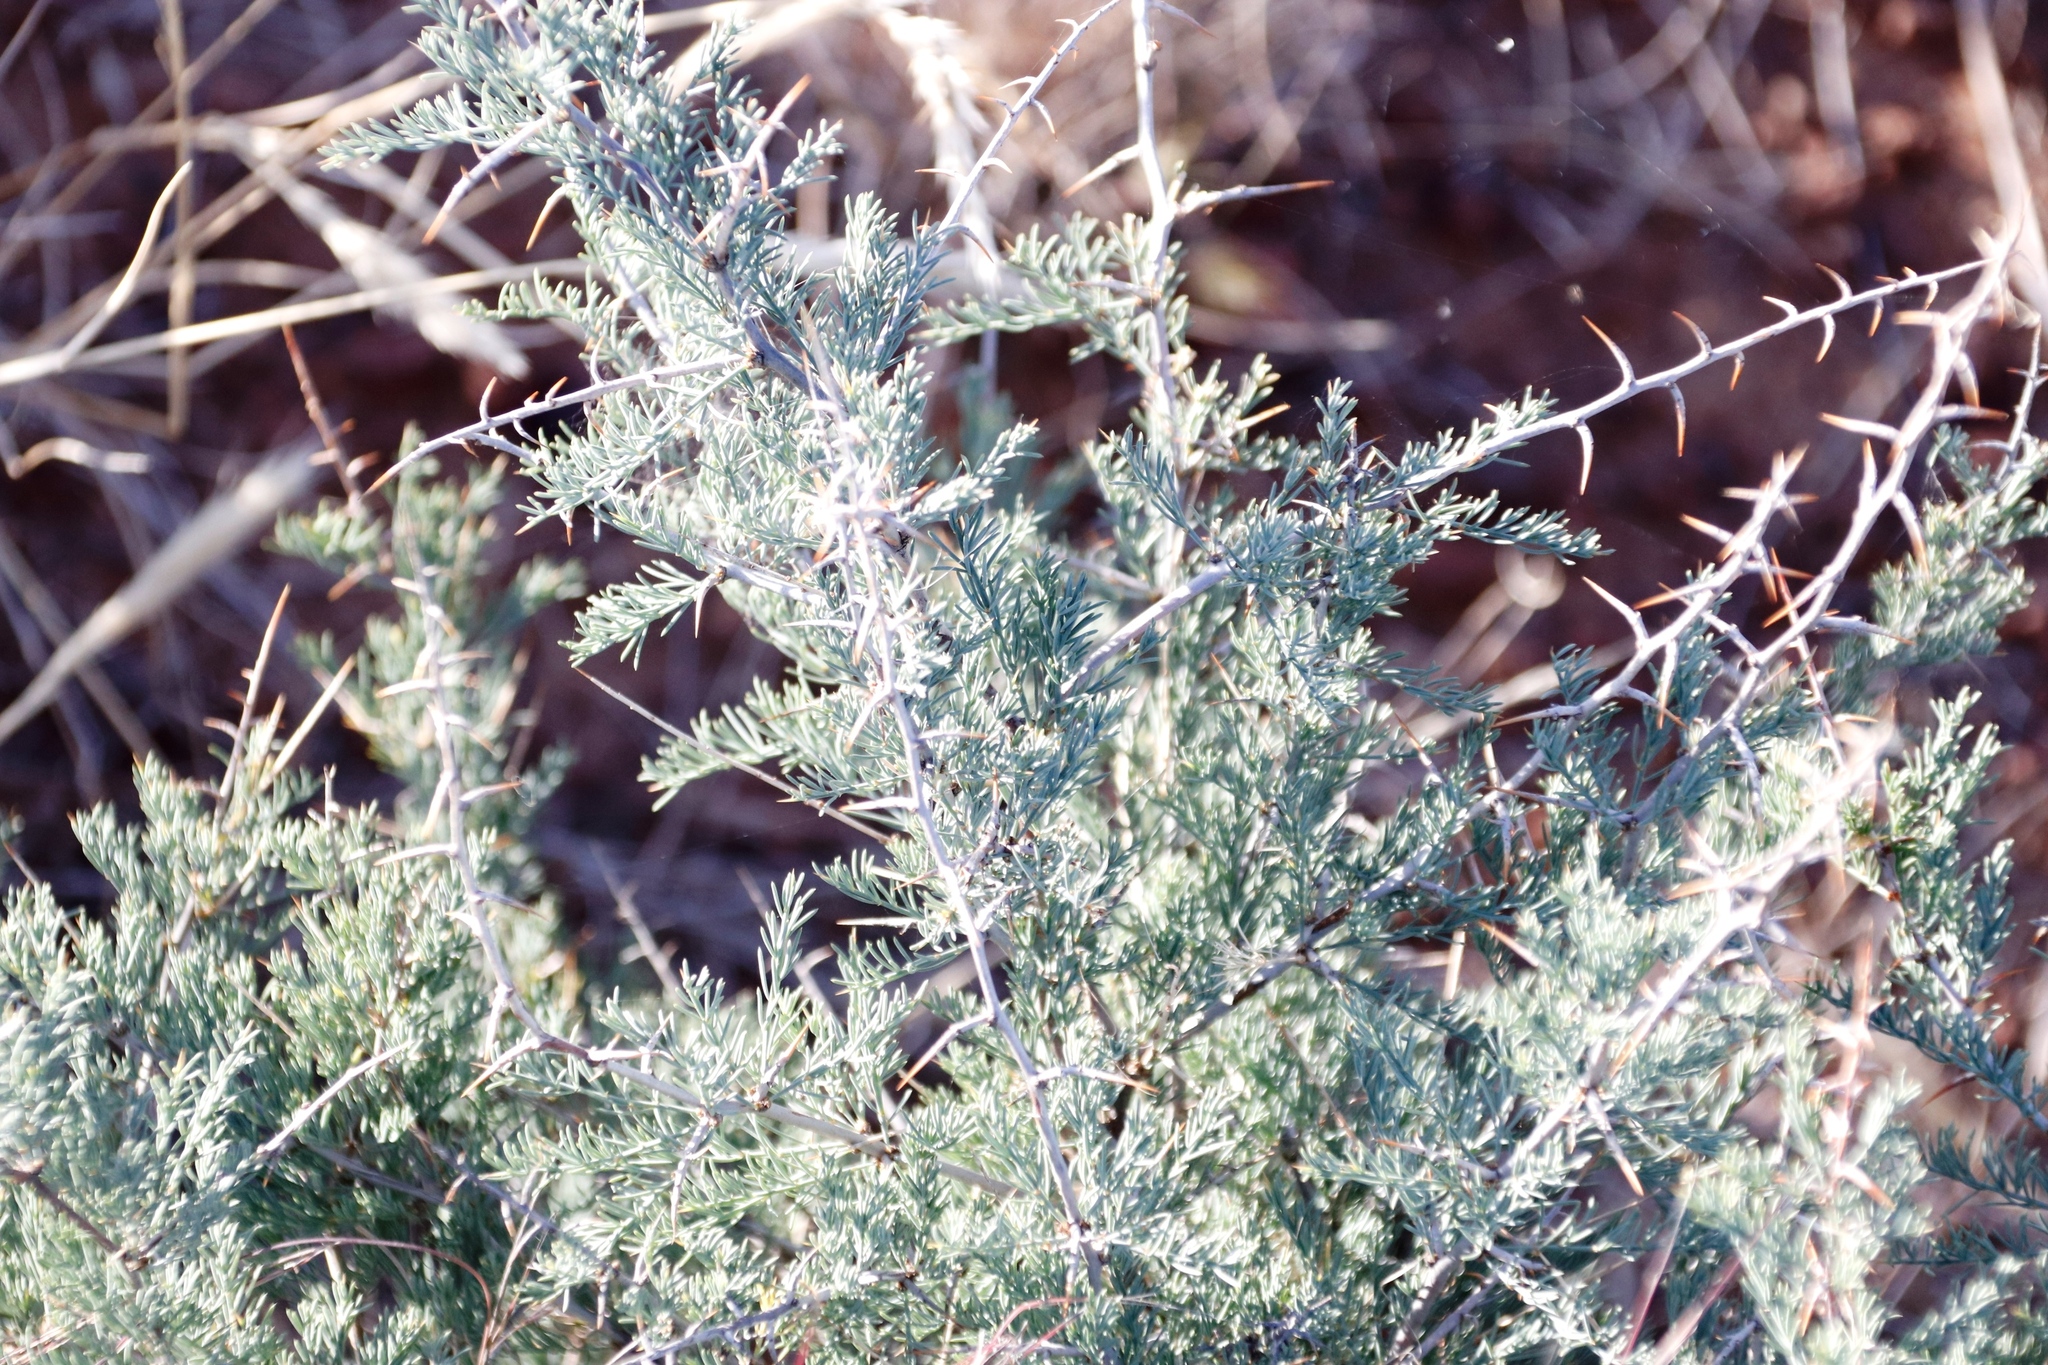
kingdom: Plantae
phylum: Tracheophyta
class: Liliopsida
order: Asparagales
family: Asparagaceae
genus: Asparagus
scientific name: Asparagus glaucus
